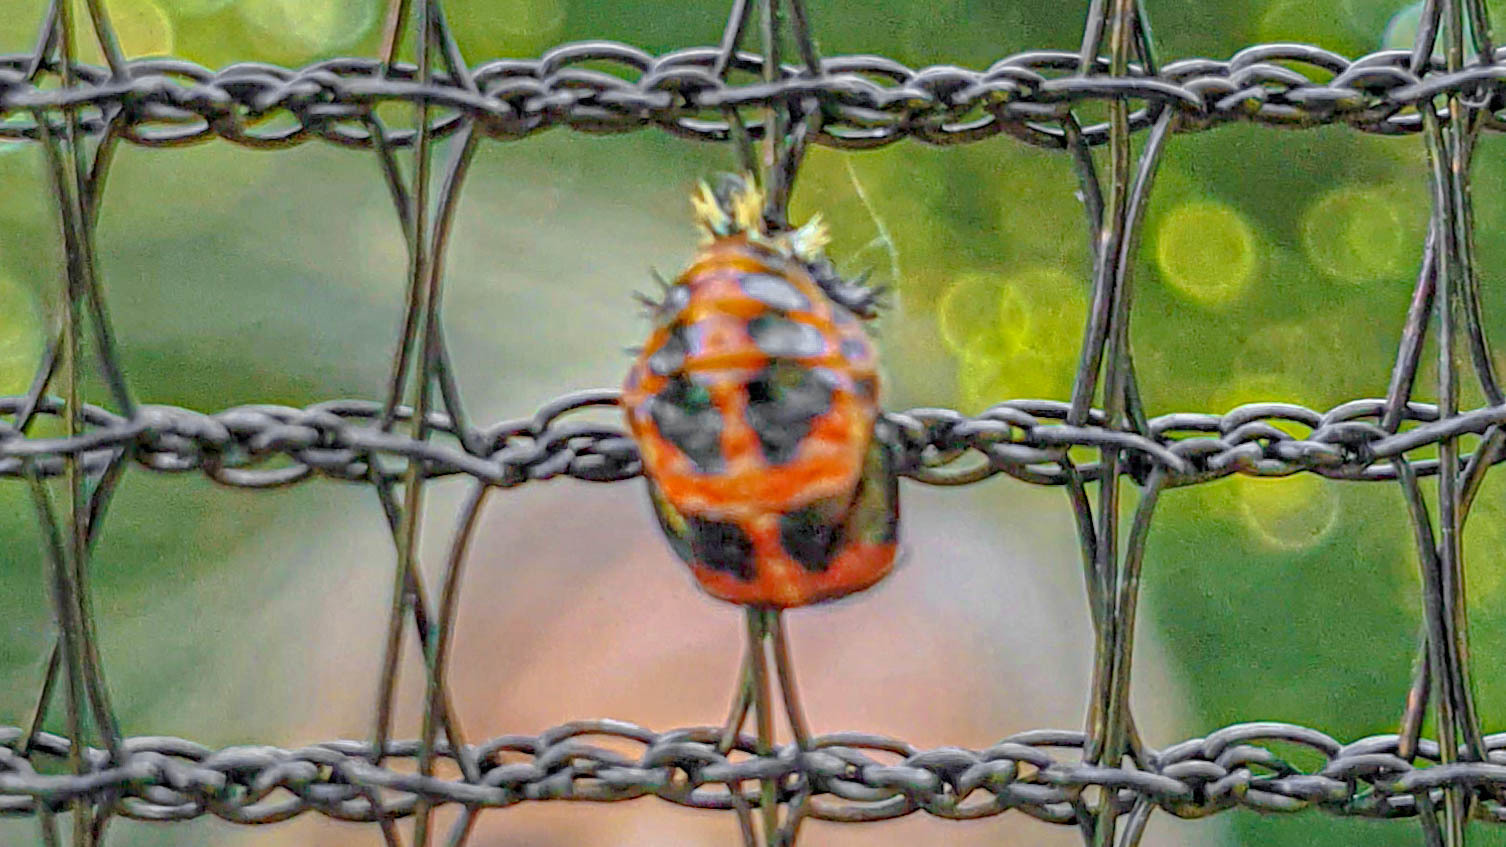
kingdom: Animalia
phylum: Arthropoda
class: Insecta
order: Coleoptera
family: Coccinellidae
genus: Harmonia
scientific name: Harmonia axyridis
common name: Harlequin ladybird
